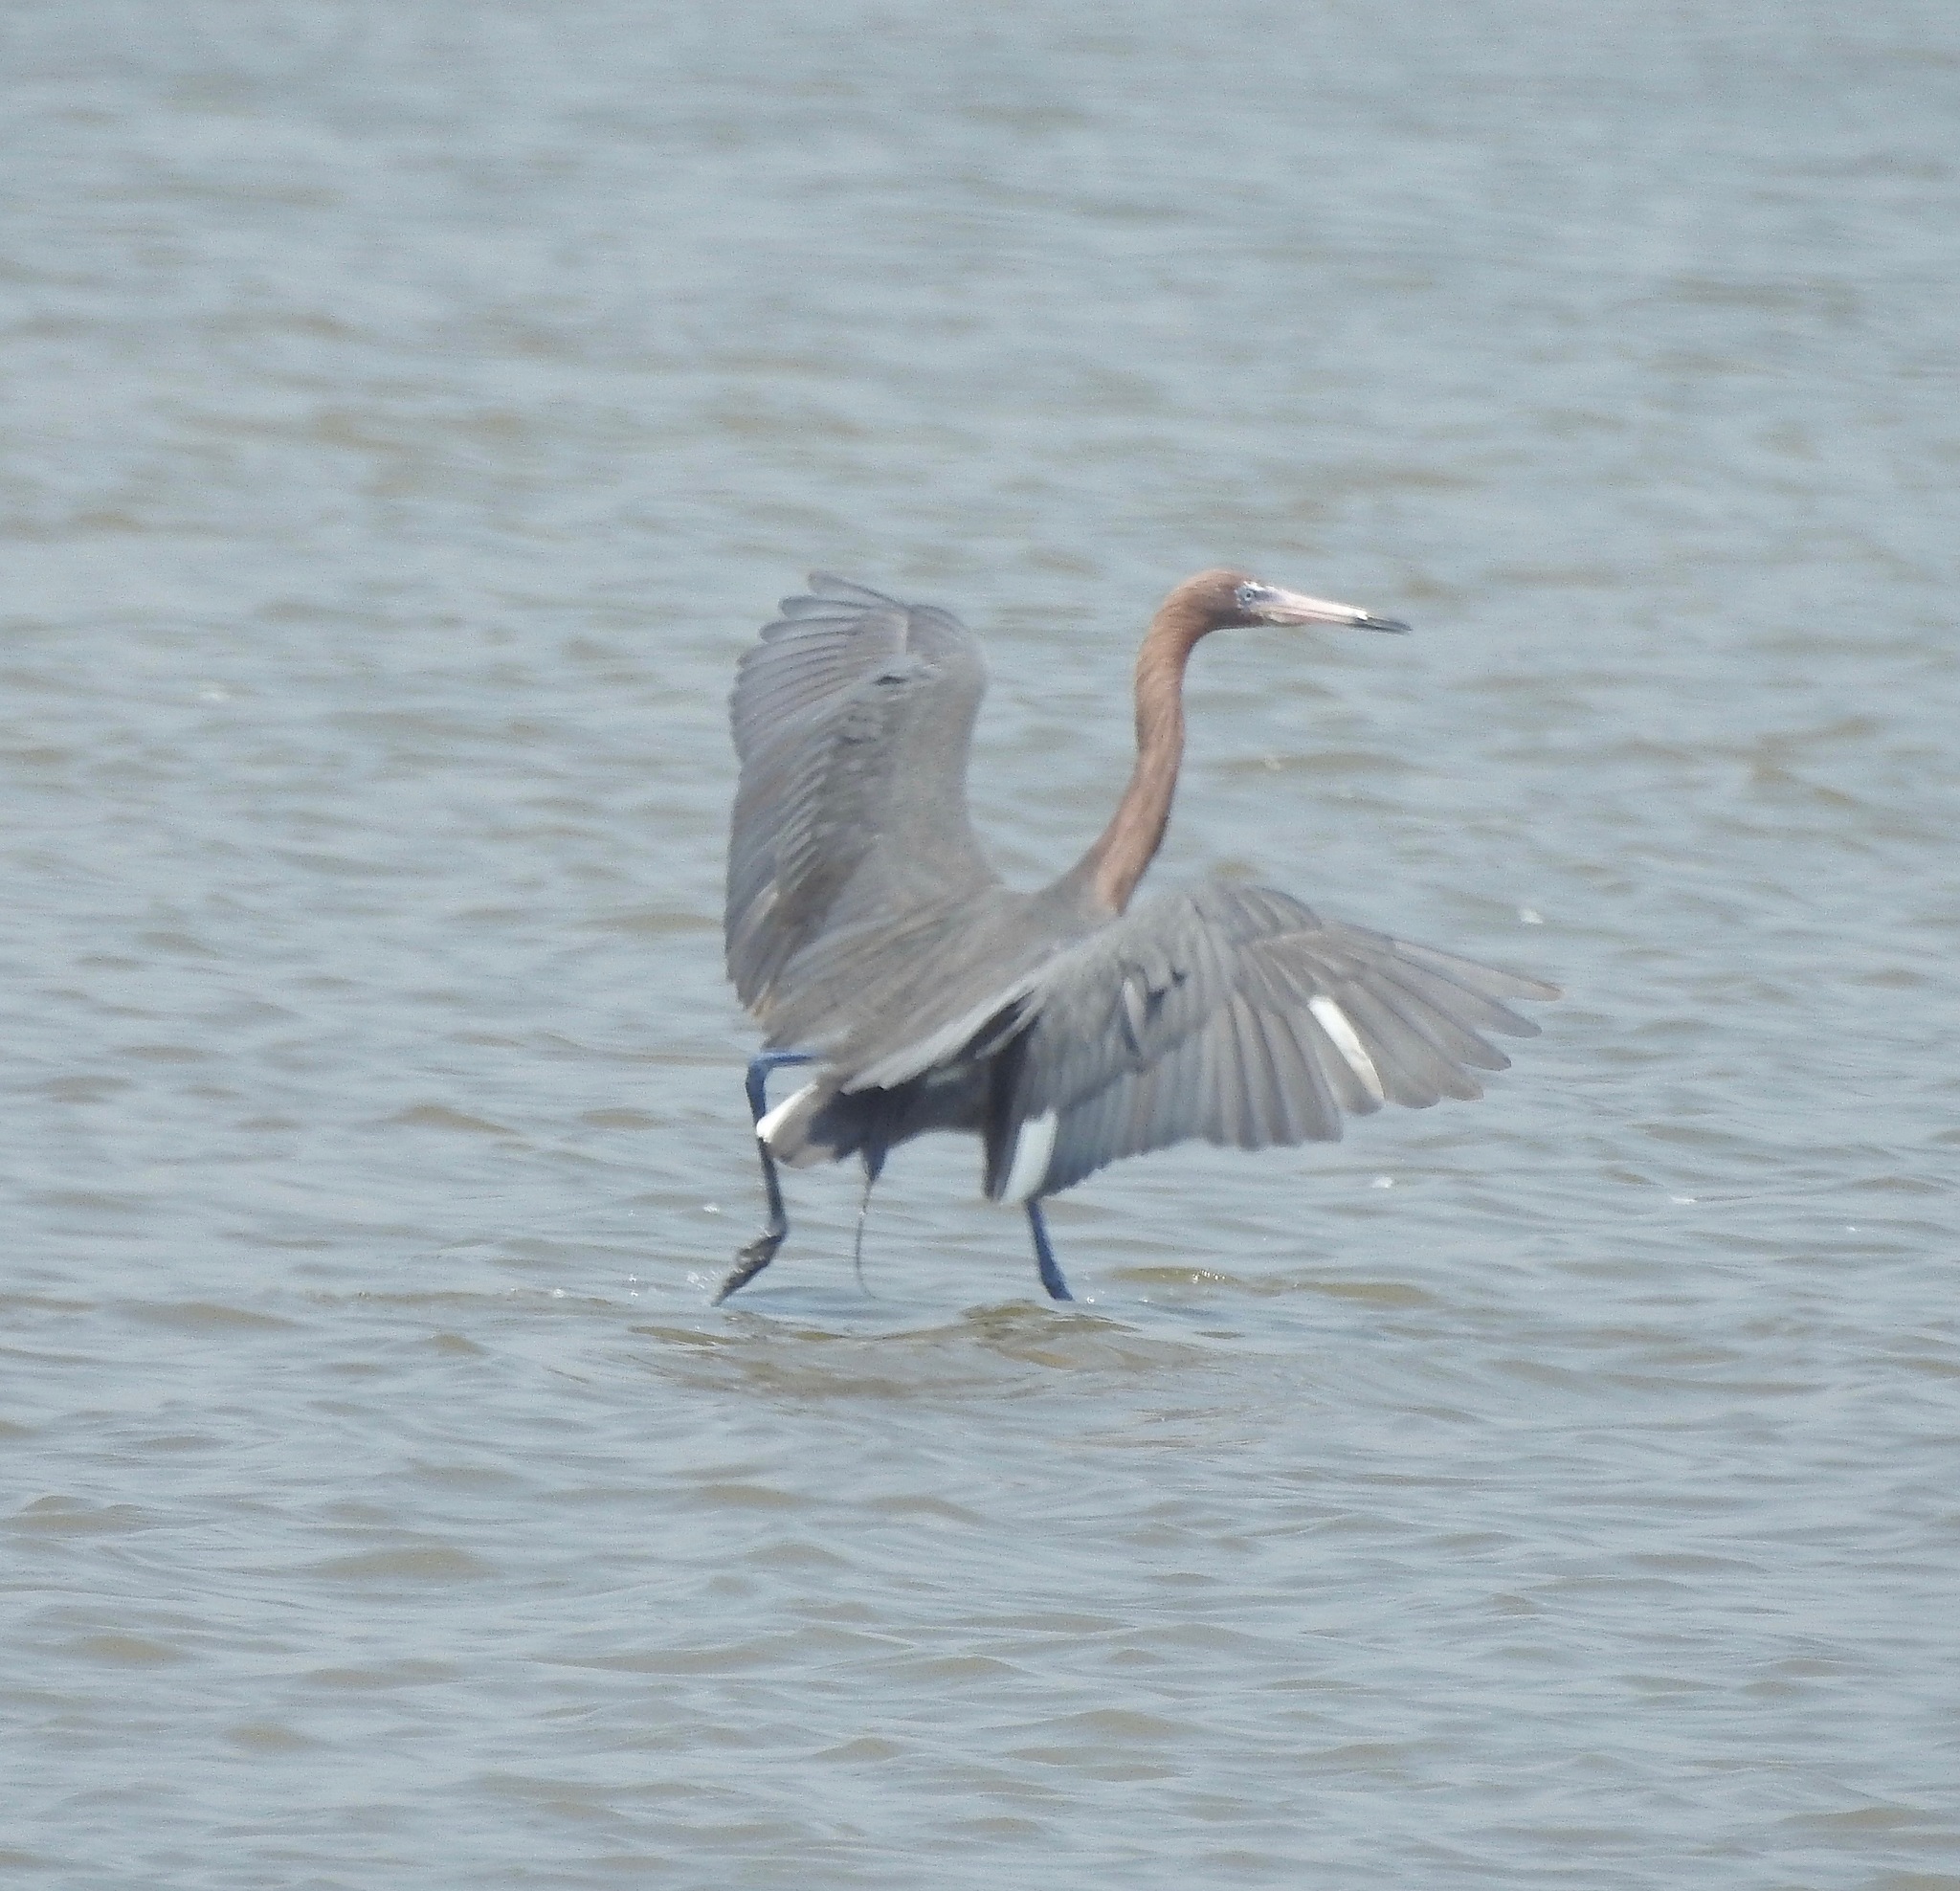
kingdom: Animalia
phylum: Chordata
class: Aves
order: Pelecaniformes
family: Ardeidae
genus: Egretta
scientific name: Egretta rufescens
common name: Reddish egret
